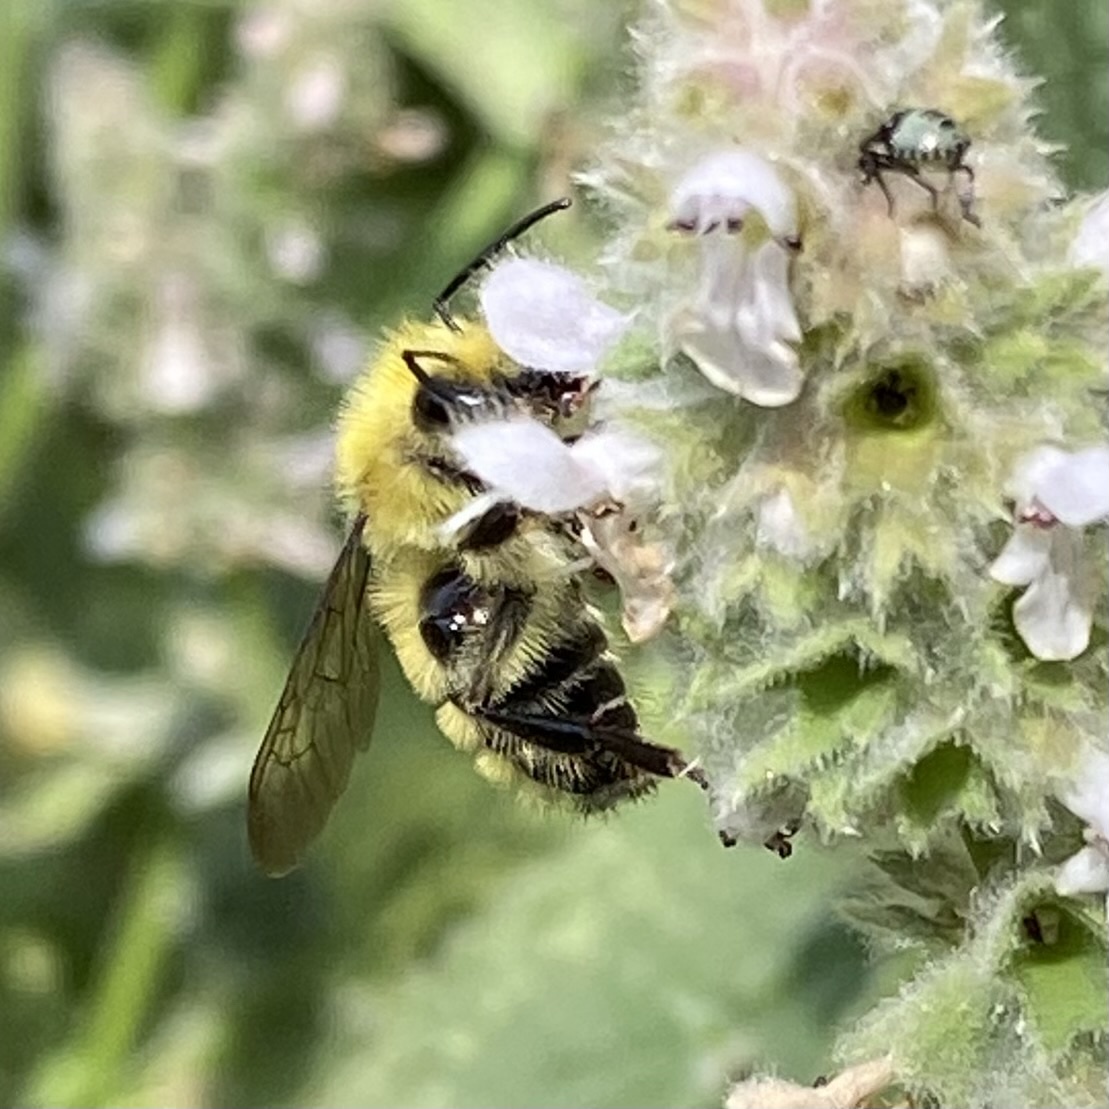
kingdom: Animalia
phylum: Arthropoda
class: Insecta
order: Hymenoptera
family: Apidae
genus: Bombus
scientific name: Bombus vandykei
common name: Van dyke bumble bee
